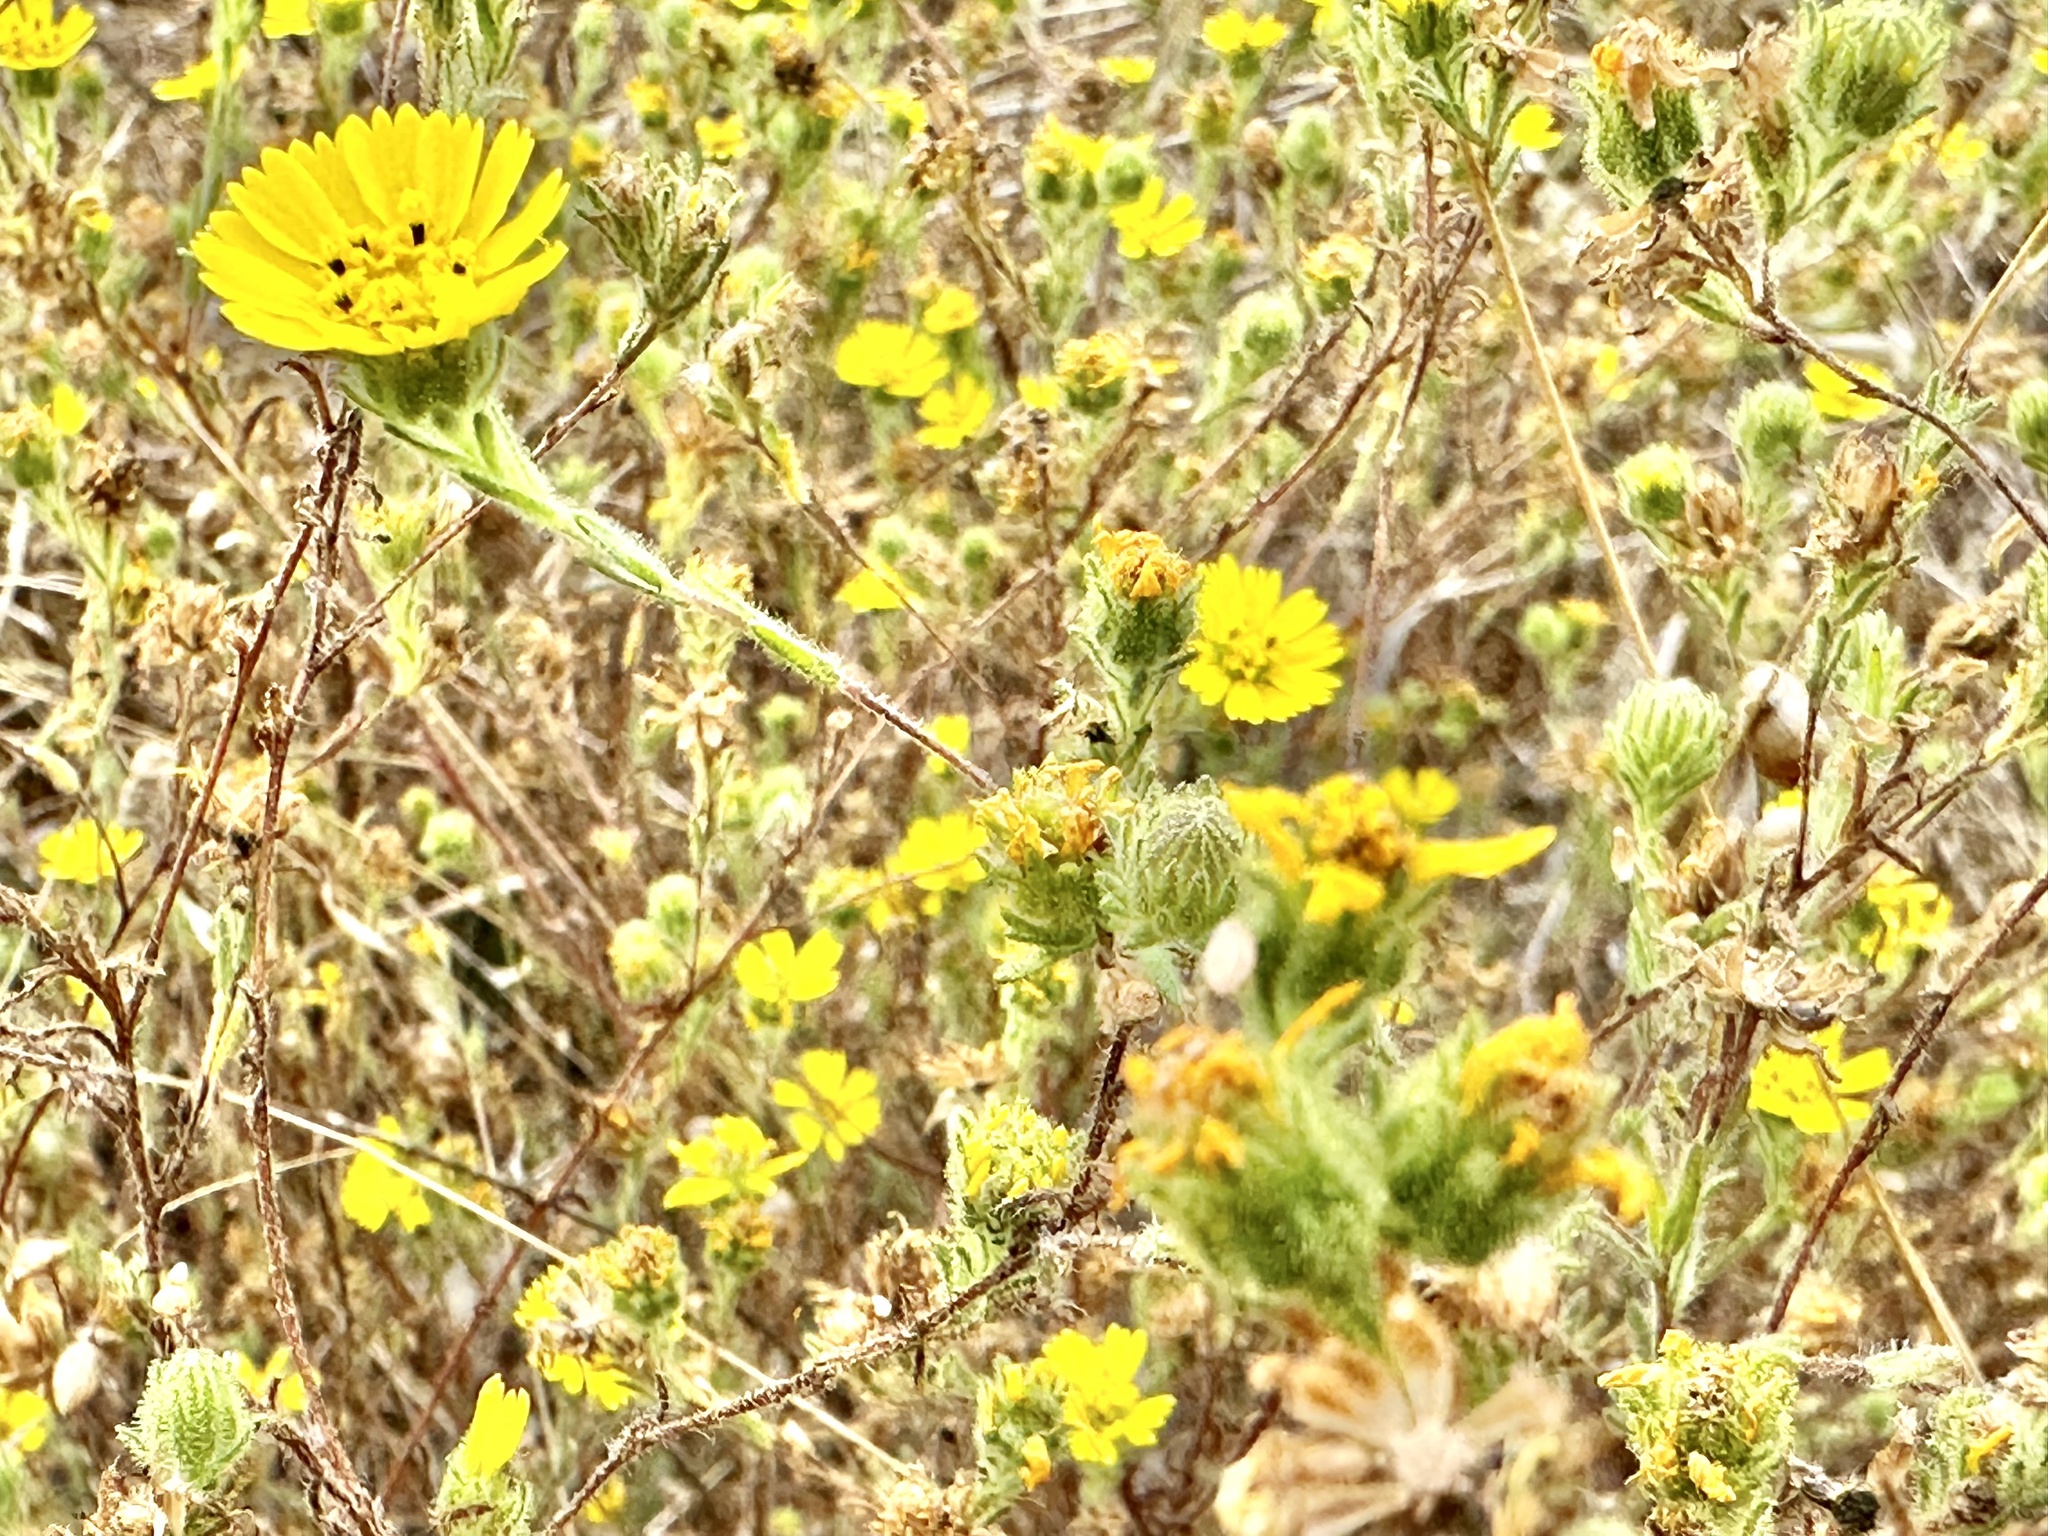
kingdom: Plantae
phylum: Tracheophyta
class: Magnoliopsida
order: Asterales
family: Asteraceae
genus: Deinandra
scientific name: Deinandra corymbosa
